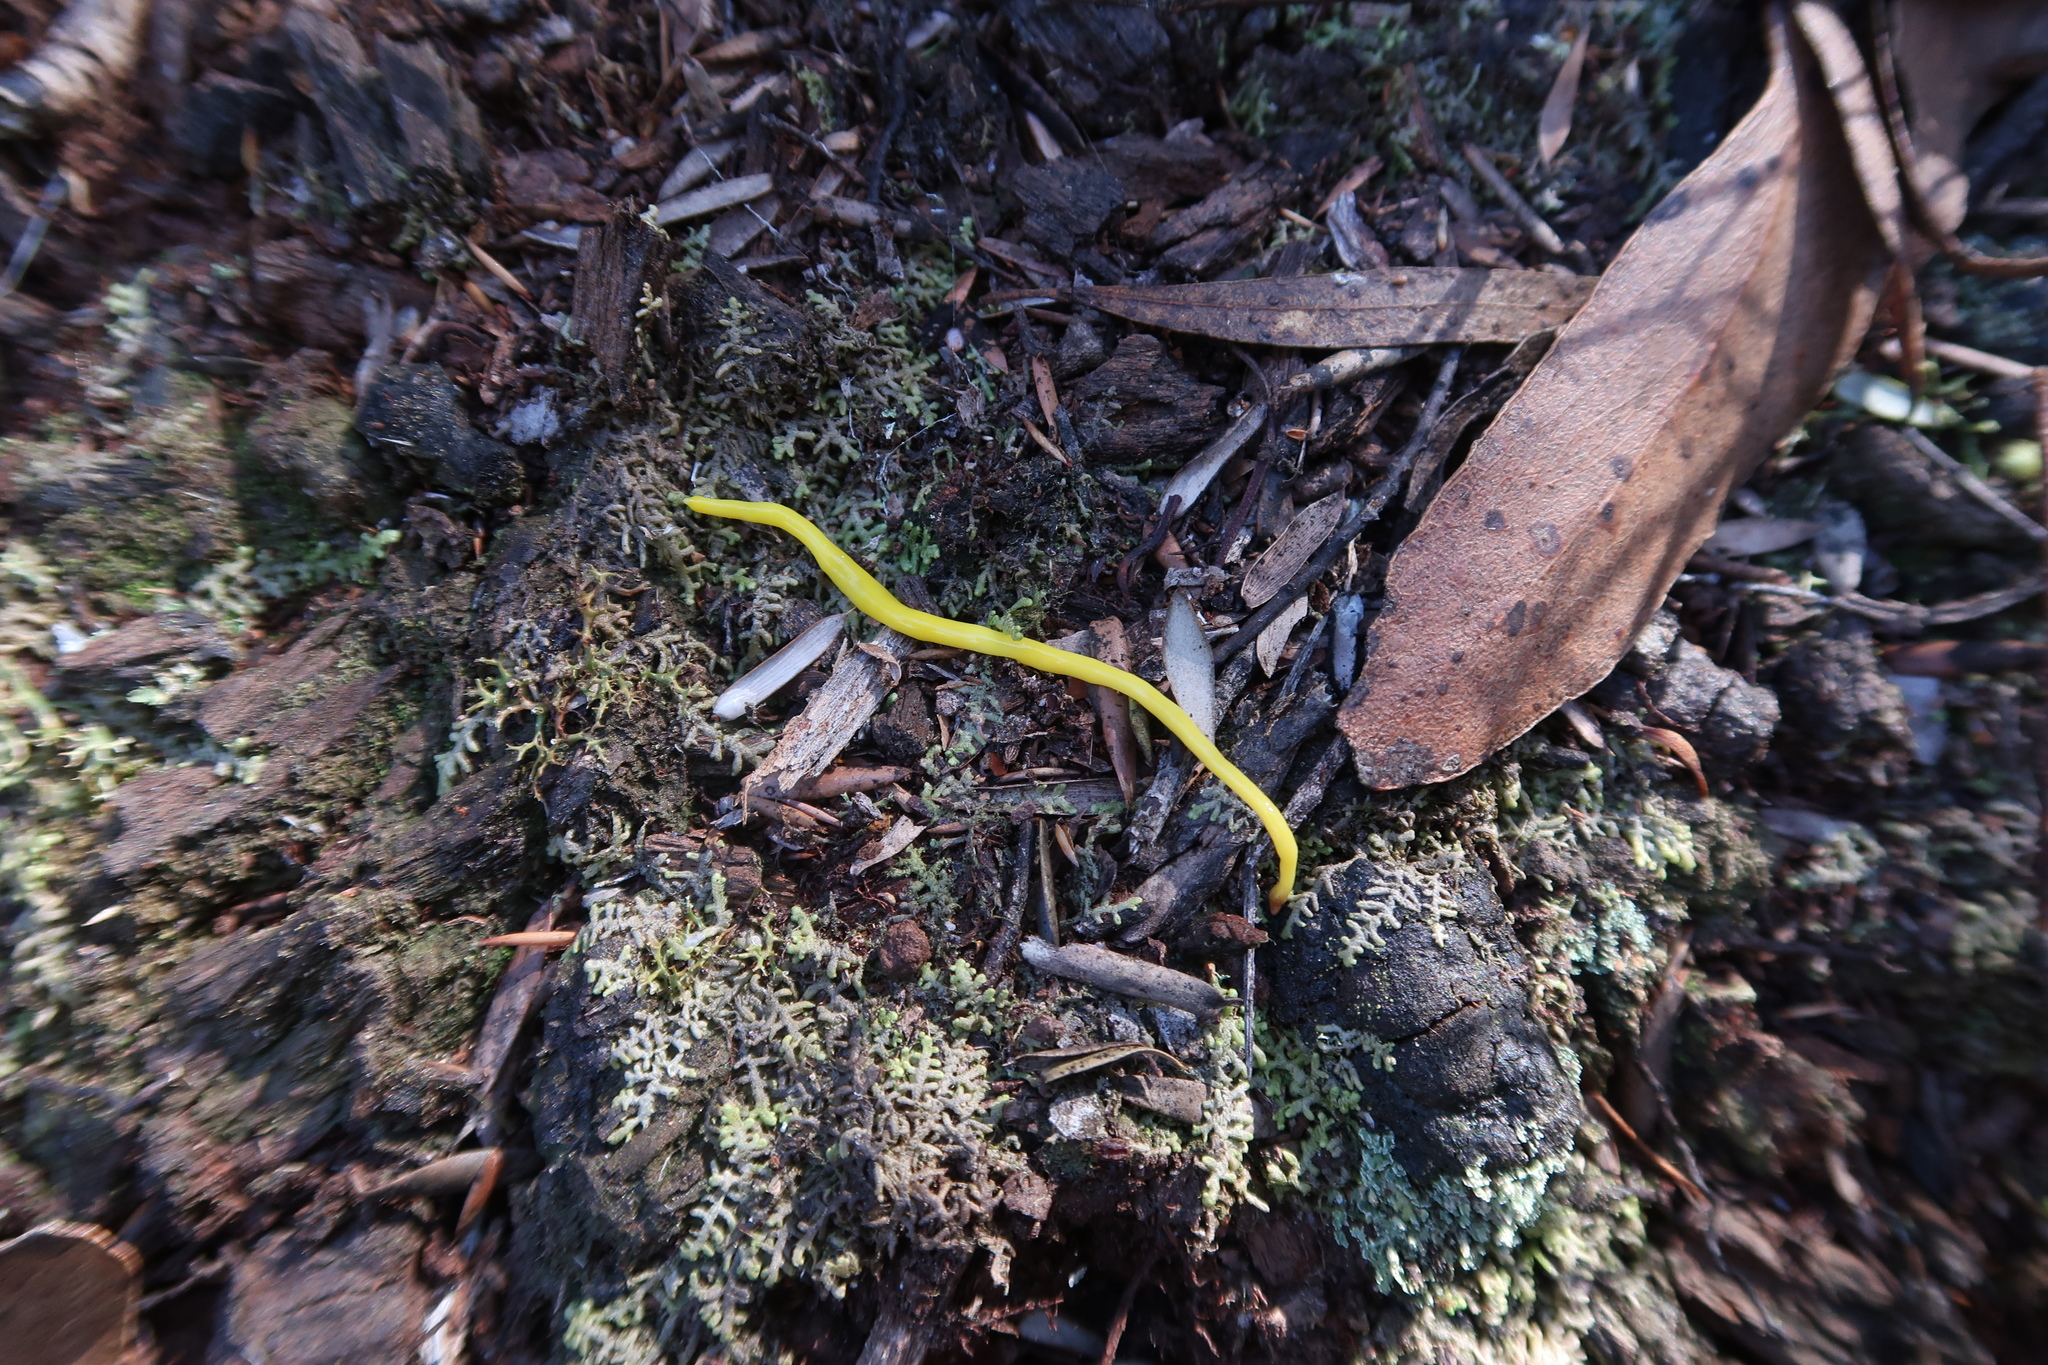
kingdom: Animalia
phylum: Platyhelminthes
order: Tricladida
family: Geoplanidae
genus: Fletchamia
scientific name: Fletchamia sugdeni
